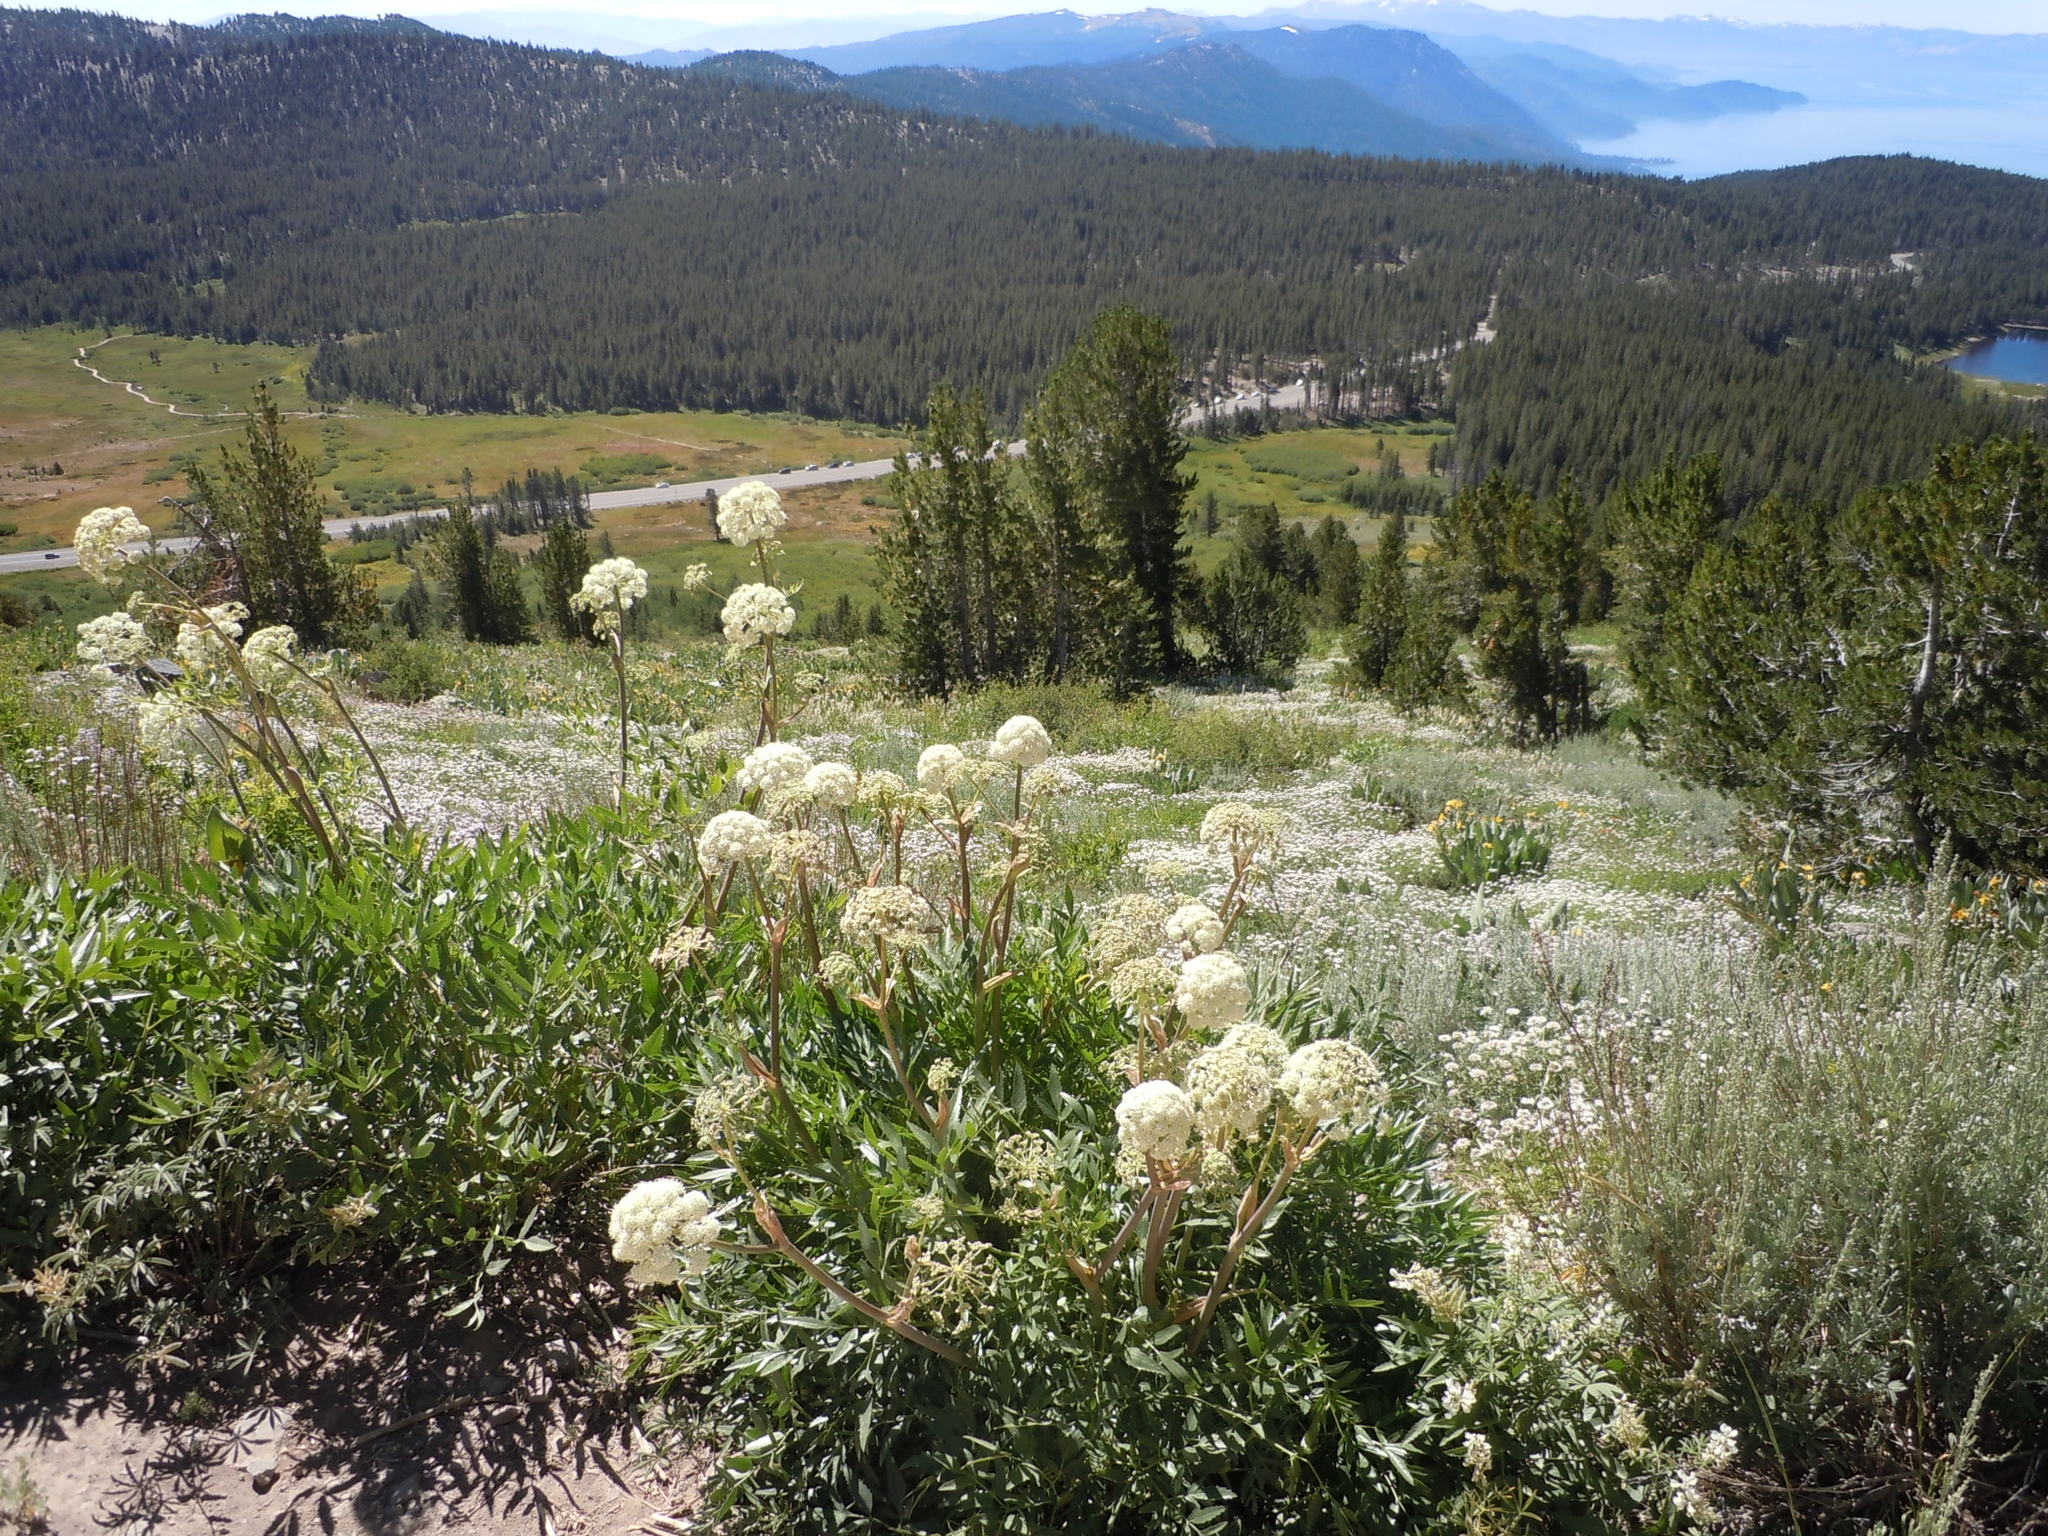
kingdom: Plantae
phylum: Tracheophyta
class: Magnoliopsida
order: Apiales
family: Apiaceae
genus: Angelica
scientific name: Angelica breweri
